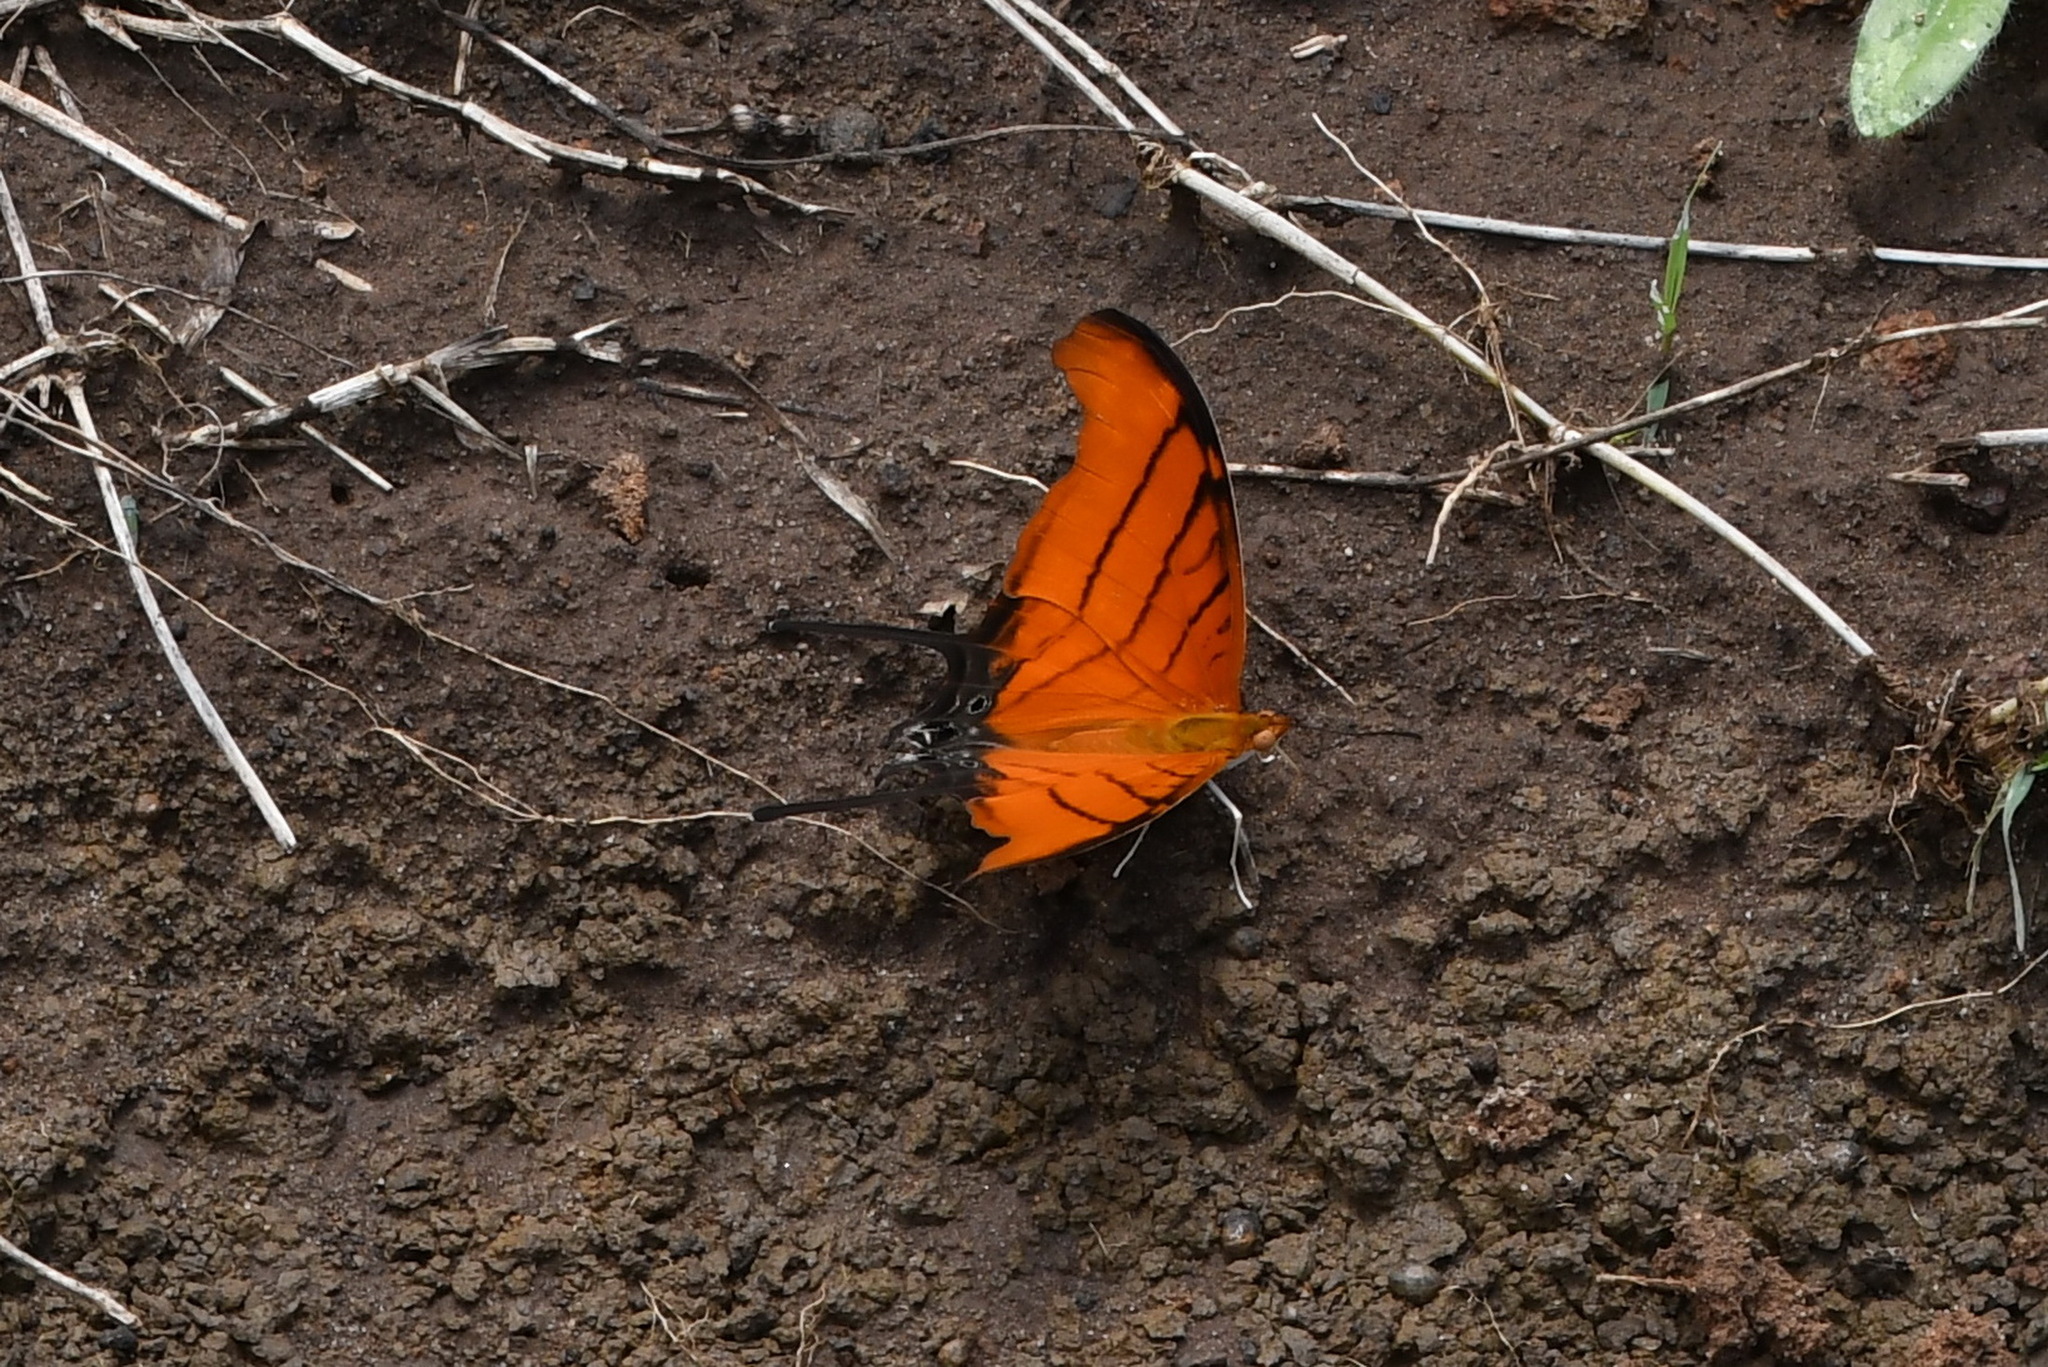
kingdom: Animalia
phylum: Arthropoda
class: Insecta
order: Lepidoptera
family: Nymphalidae
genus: Marpesia
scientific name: Marpesia petreus
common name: Red dagger wing
